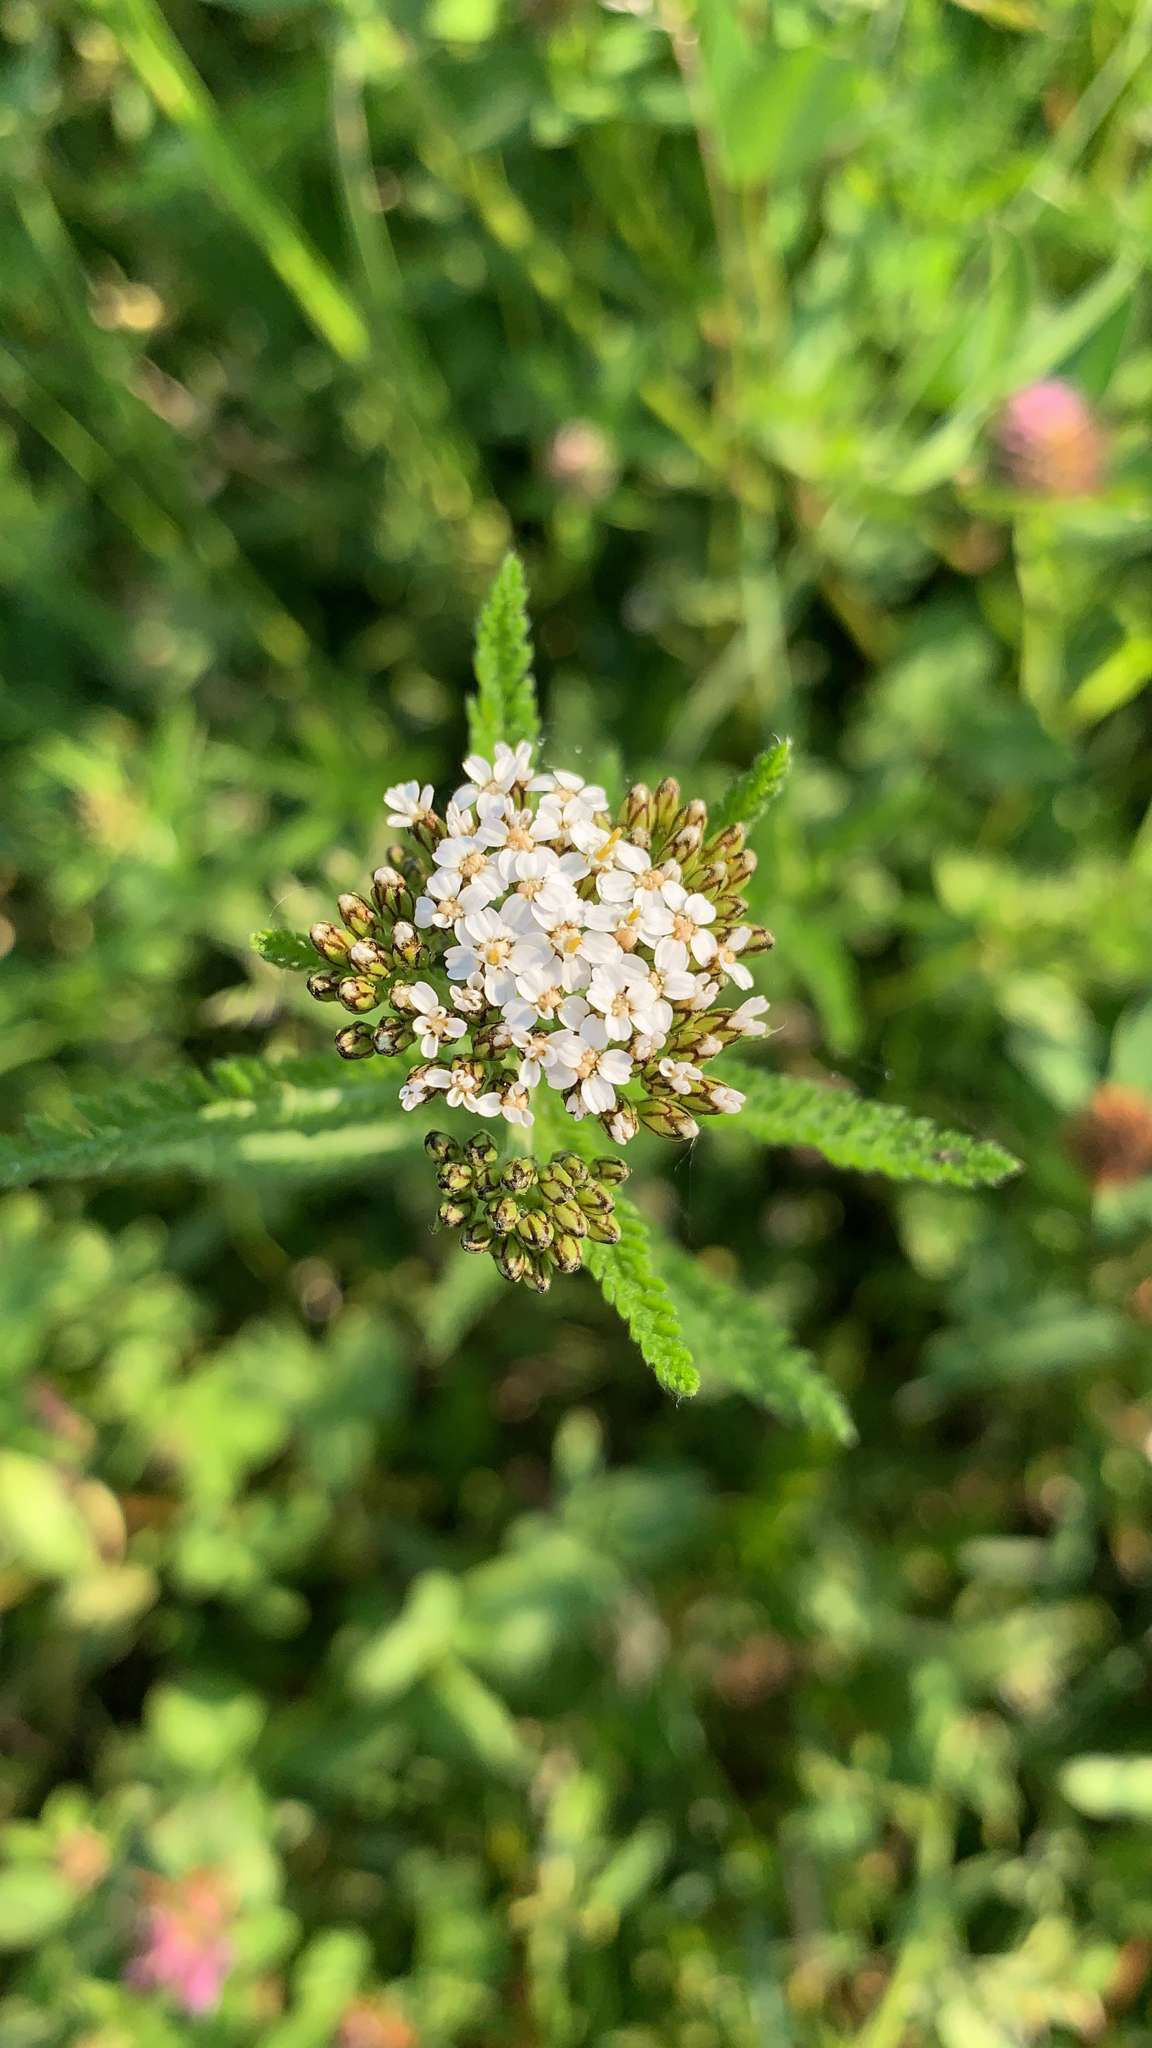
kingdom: Plantae
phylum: Tracheophyta
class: Magnoliopsida
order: Asterales
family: Asteraceae
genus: Achillea
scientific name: Achillea millefolium
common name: Yarrow
